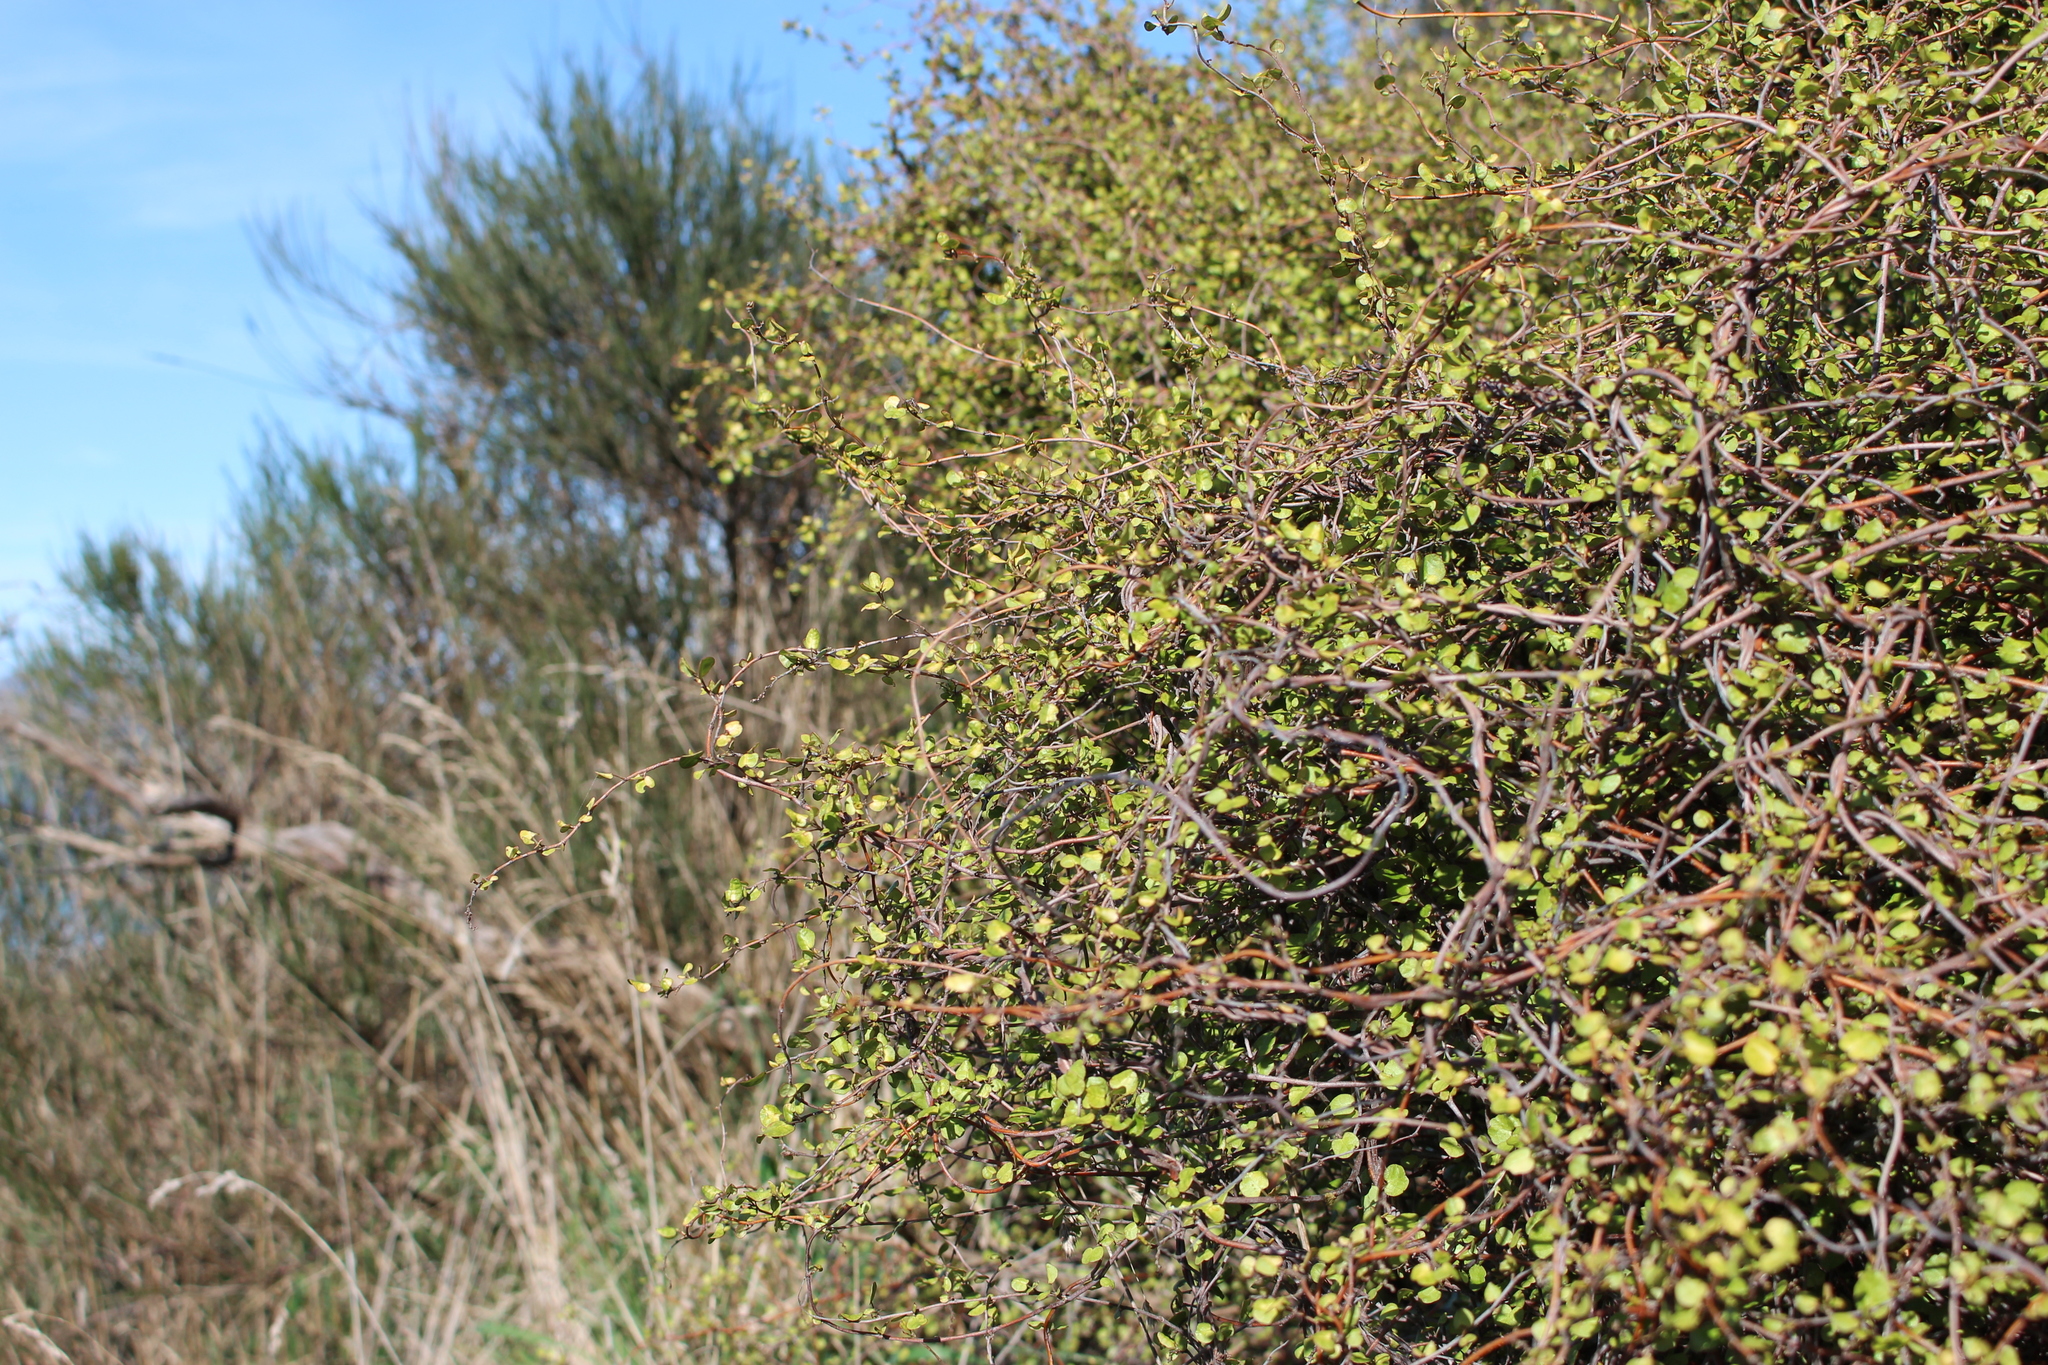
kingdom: Plantae
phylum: Tracheophyta
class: Magnoliopsida
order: Caryophyllales
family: Polygonaceae
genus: Muehlenbeckia
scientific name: Muehlenbeckia complexa
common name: Wireplant
